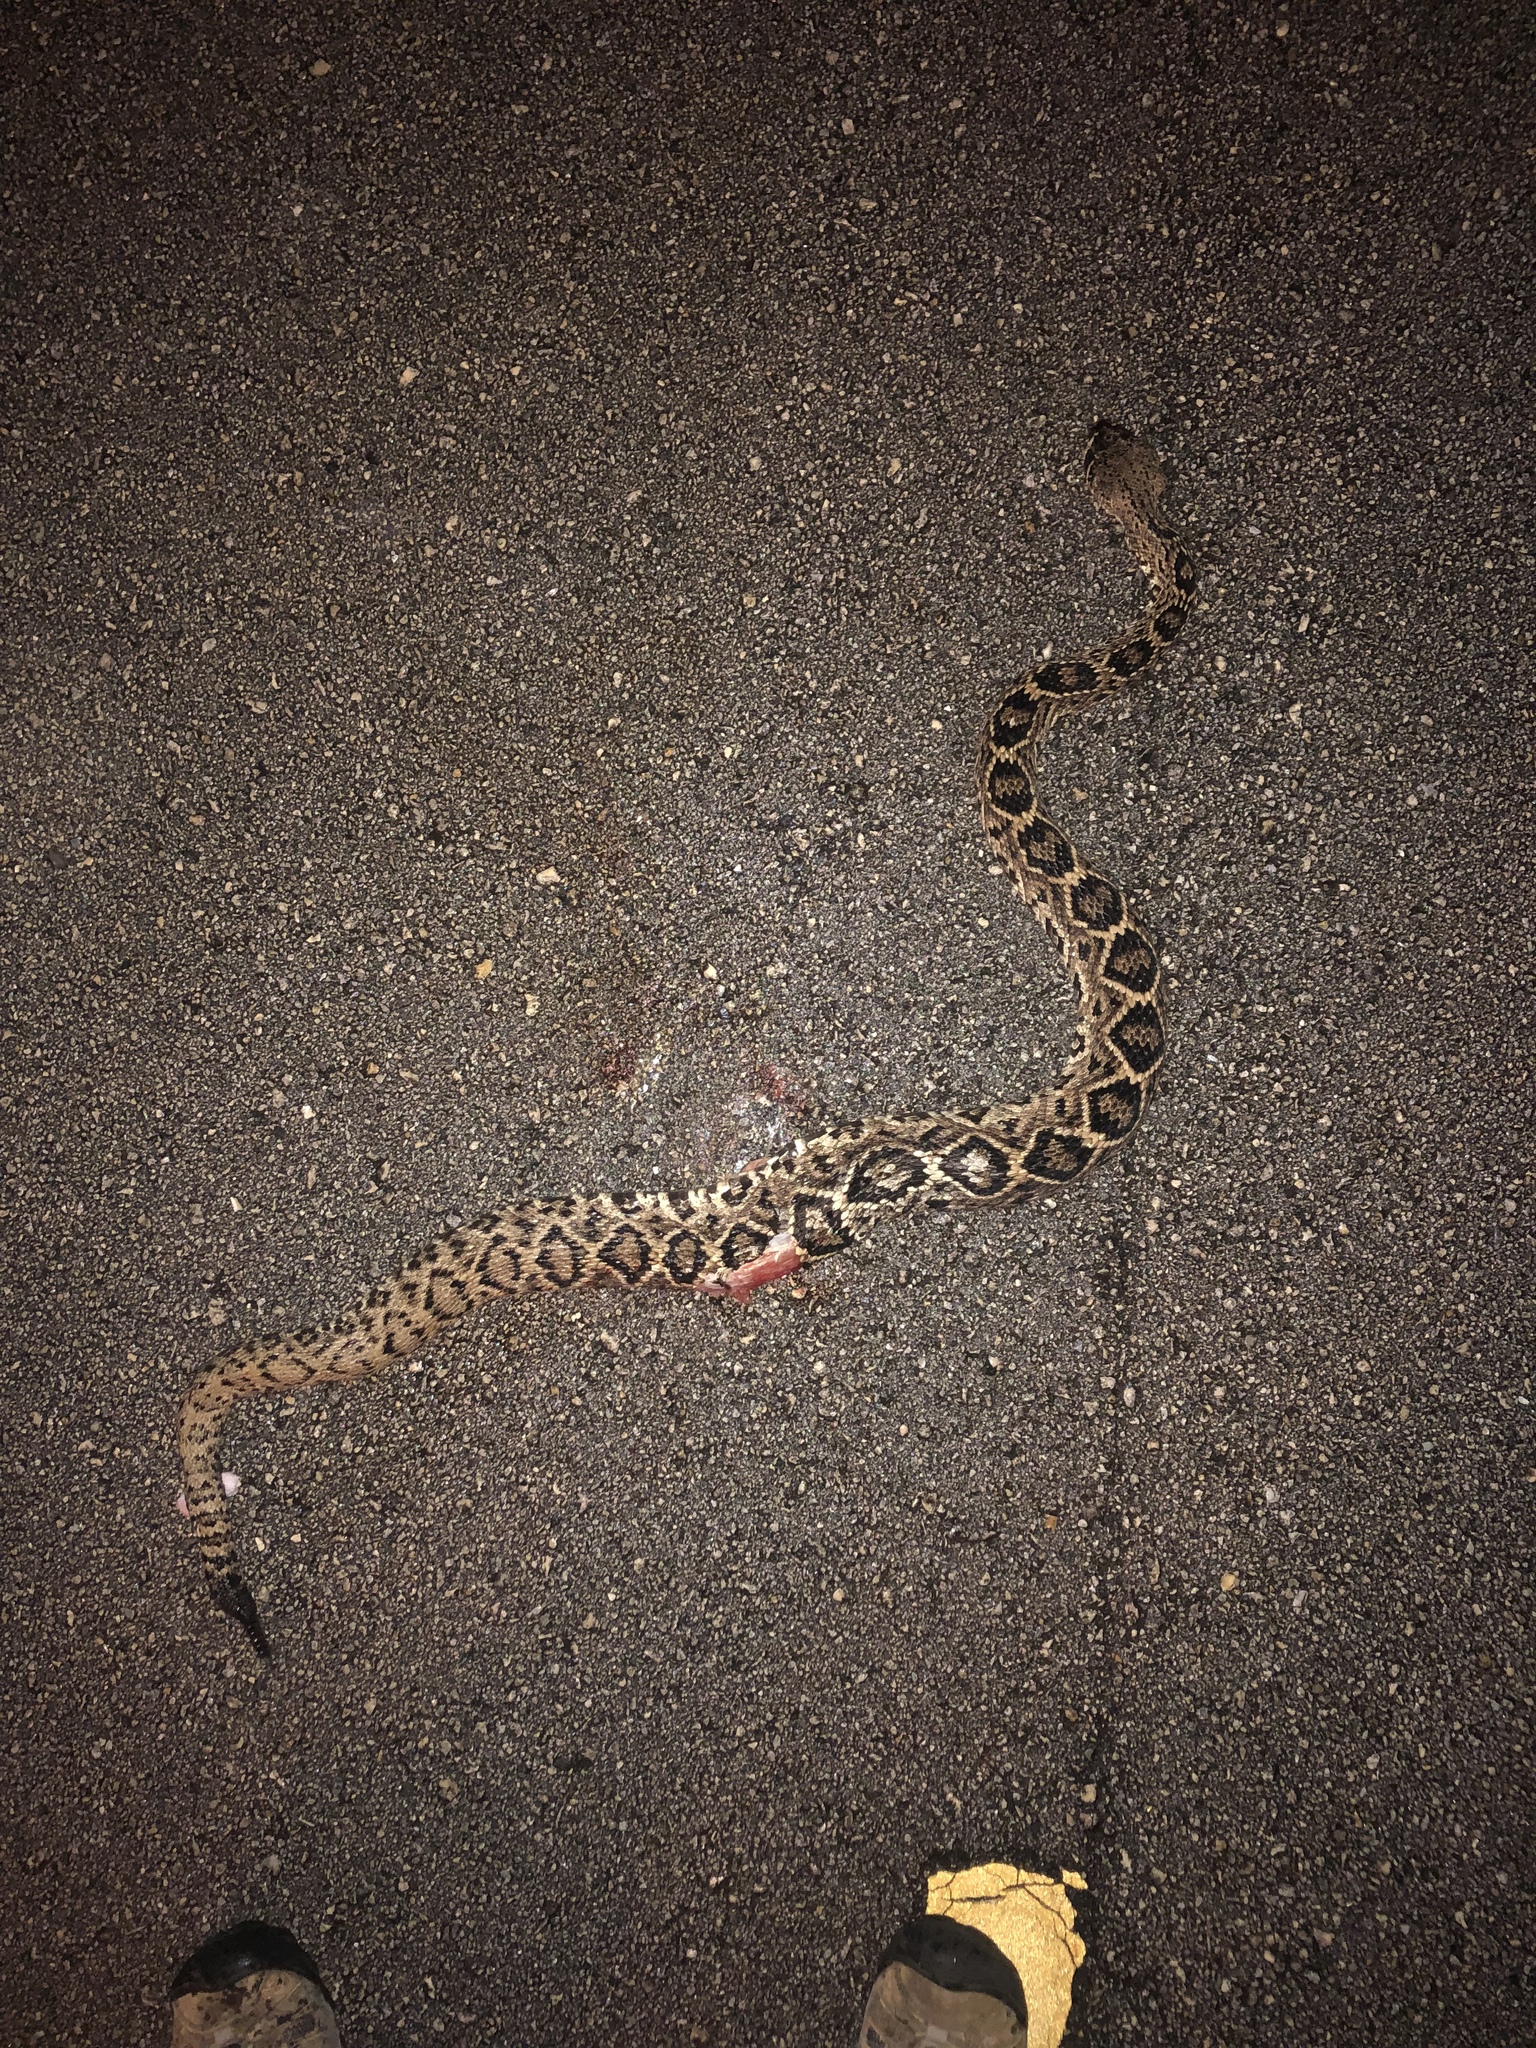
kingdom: Animalia
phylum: Chordata
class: Squamata
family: Viperidae
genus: Crotalus
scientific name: Crotalus adamanteus
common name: Eastern diamondback rattlesnake
